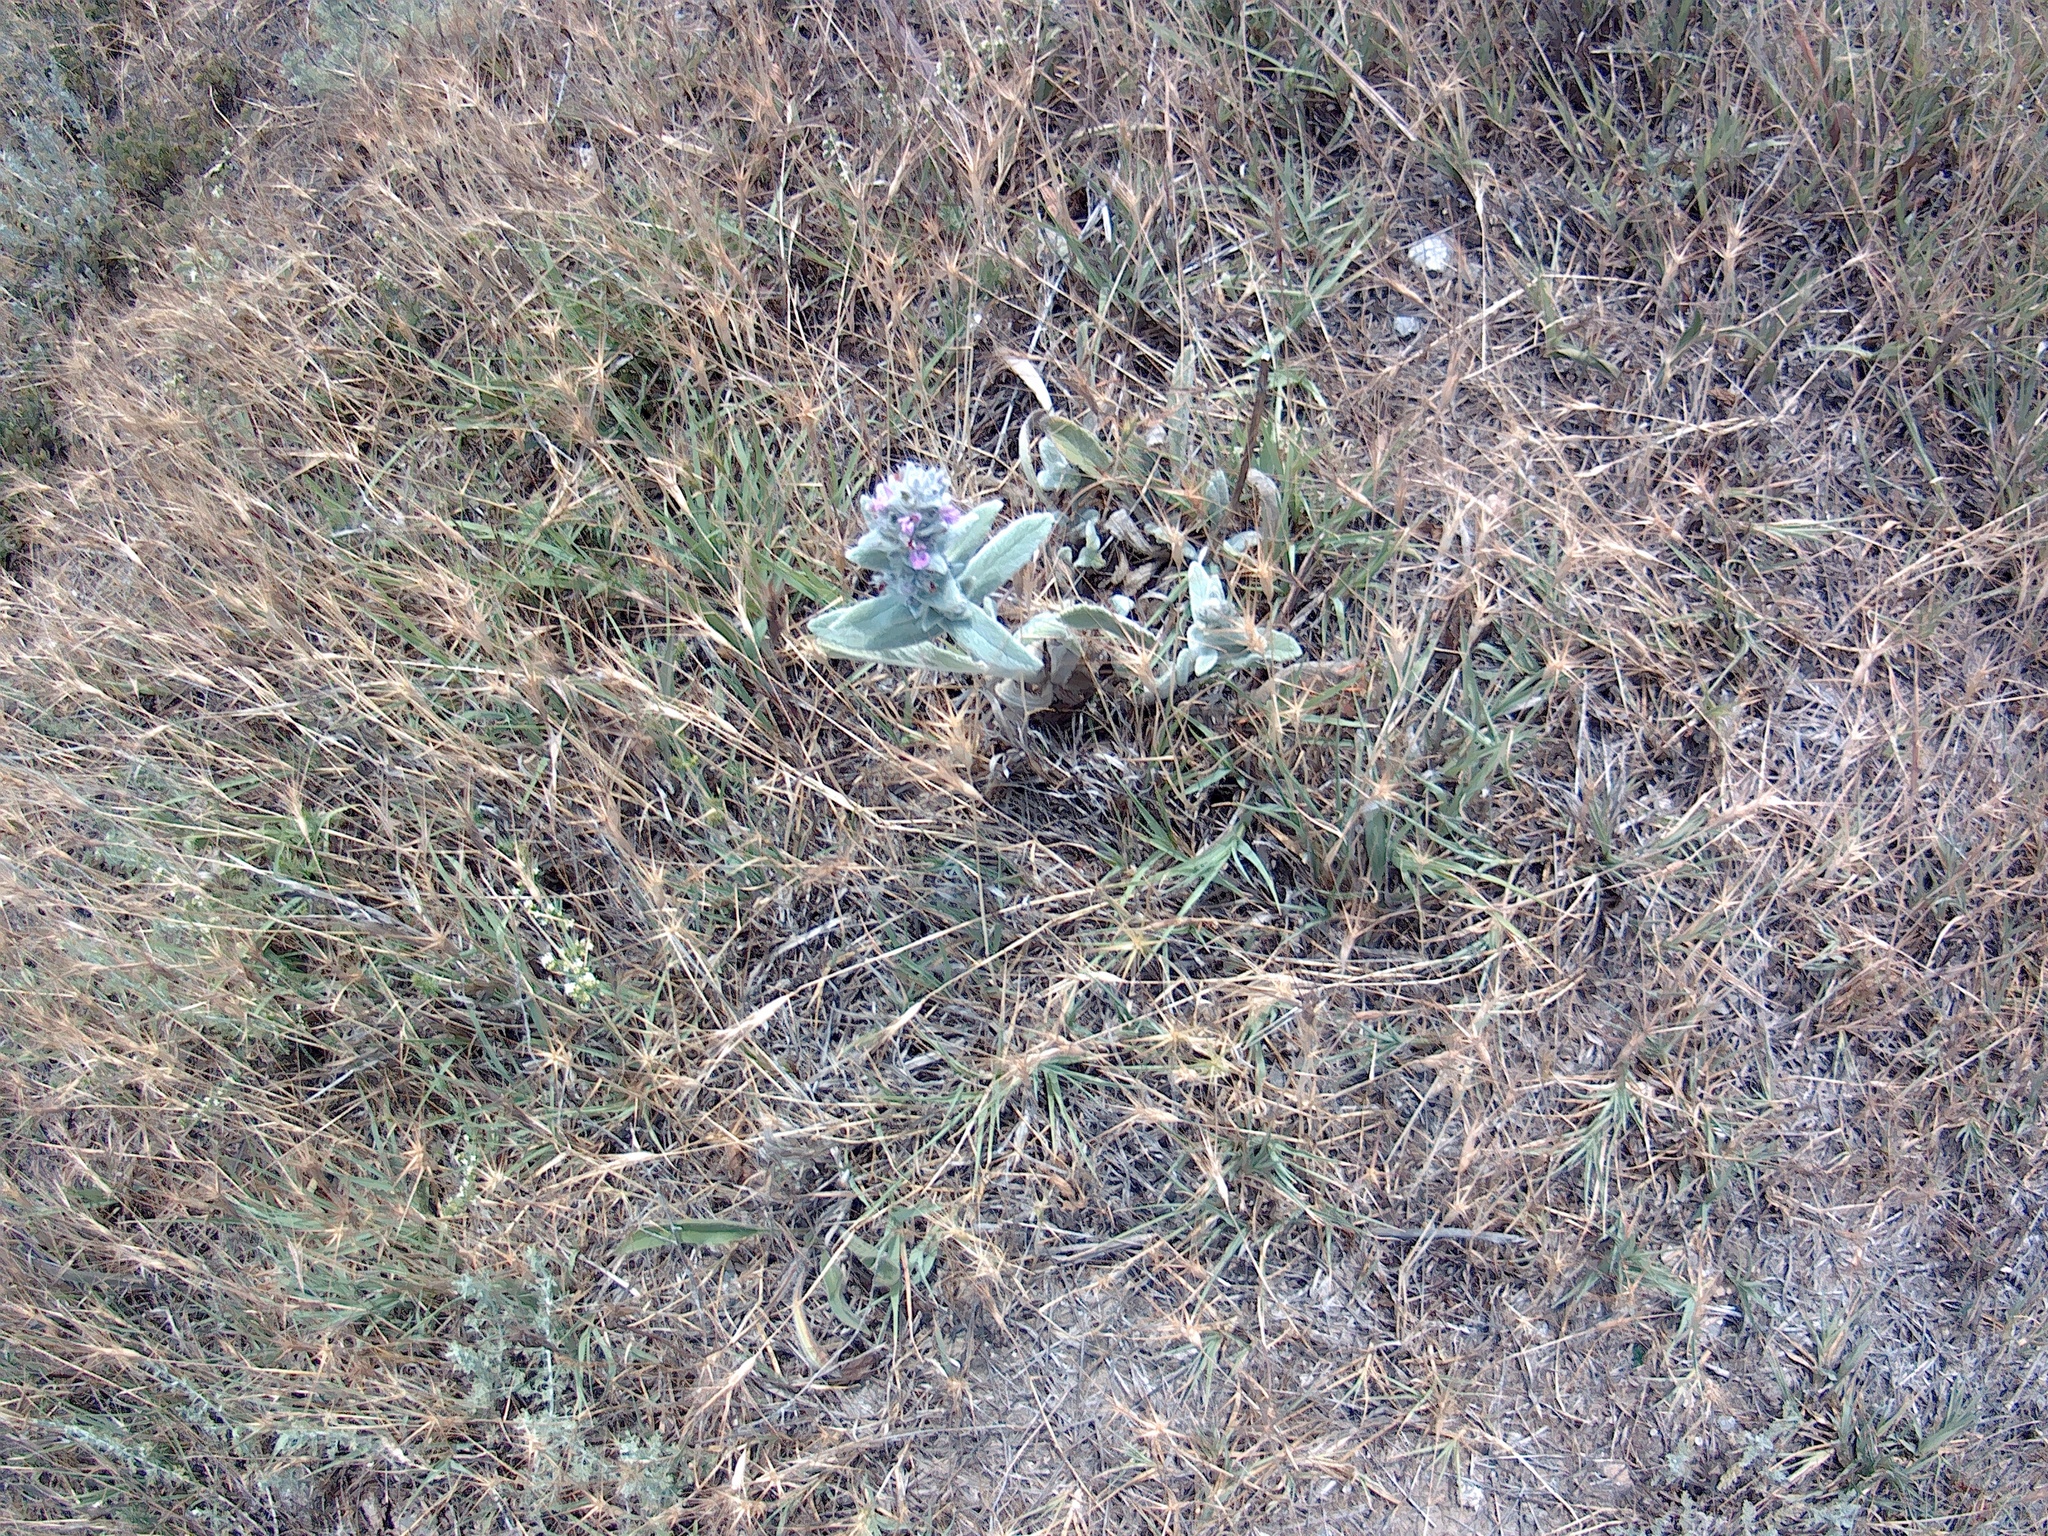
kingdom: Plantae
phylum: Tracheophyta
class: Magnoliopsida
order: Lamiales
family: Lamiaceae
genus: Stachys
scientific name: Stachys cretica
